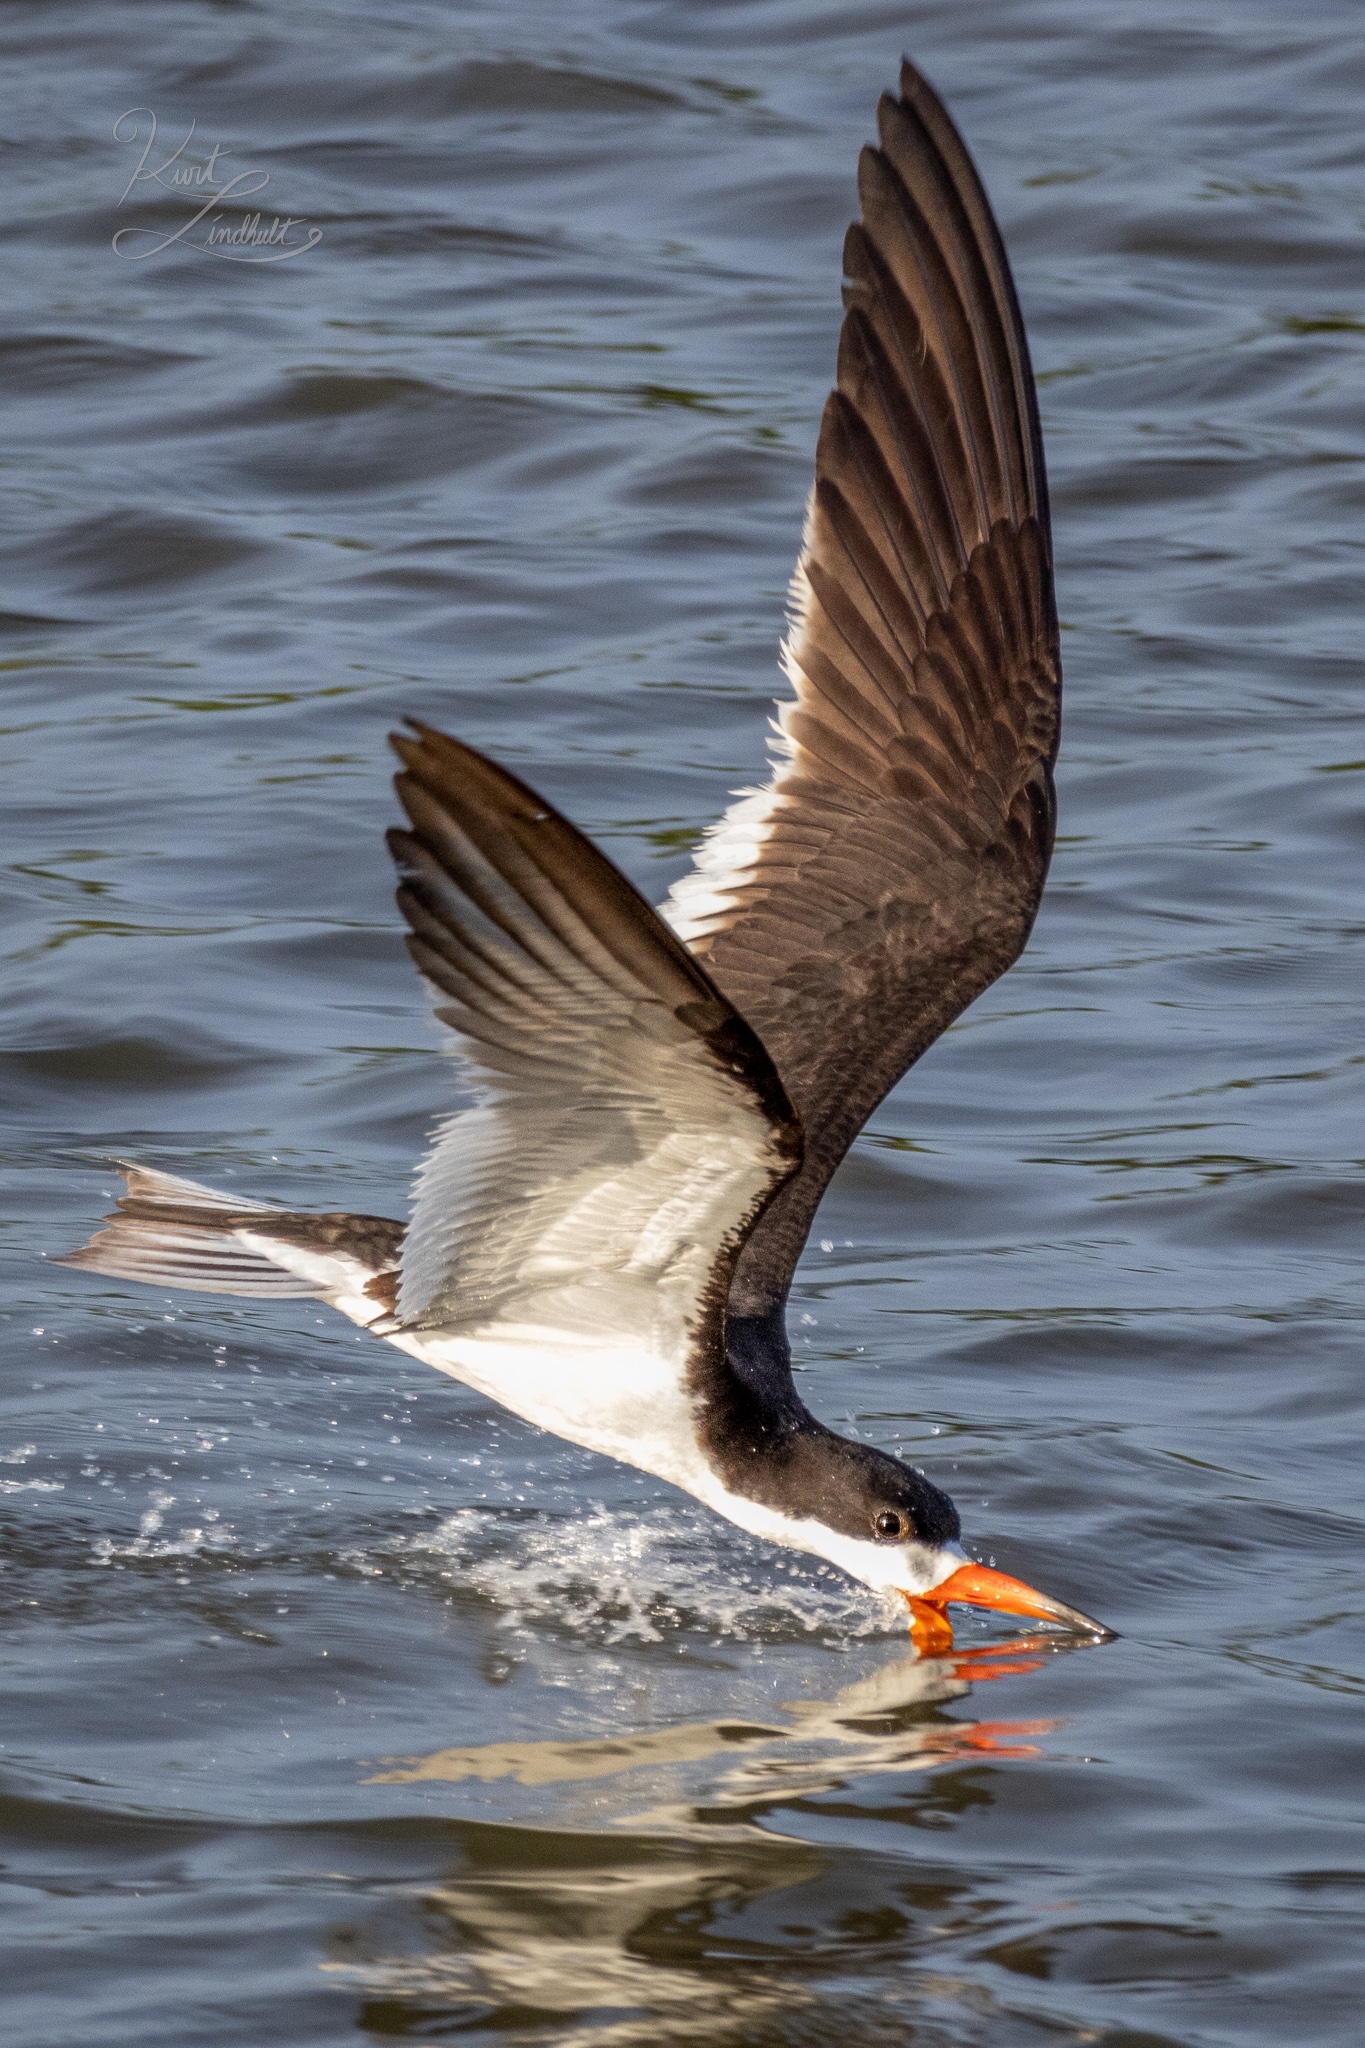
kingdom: Animalia
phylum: Chordata
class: Aves
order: Charadriiformes
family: Laridae
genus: Rynchops
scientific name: Rynchops niger
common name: Black skimmer
